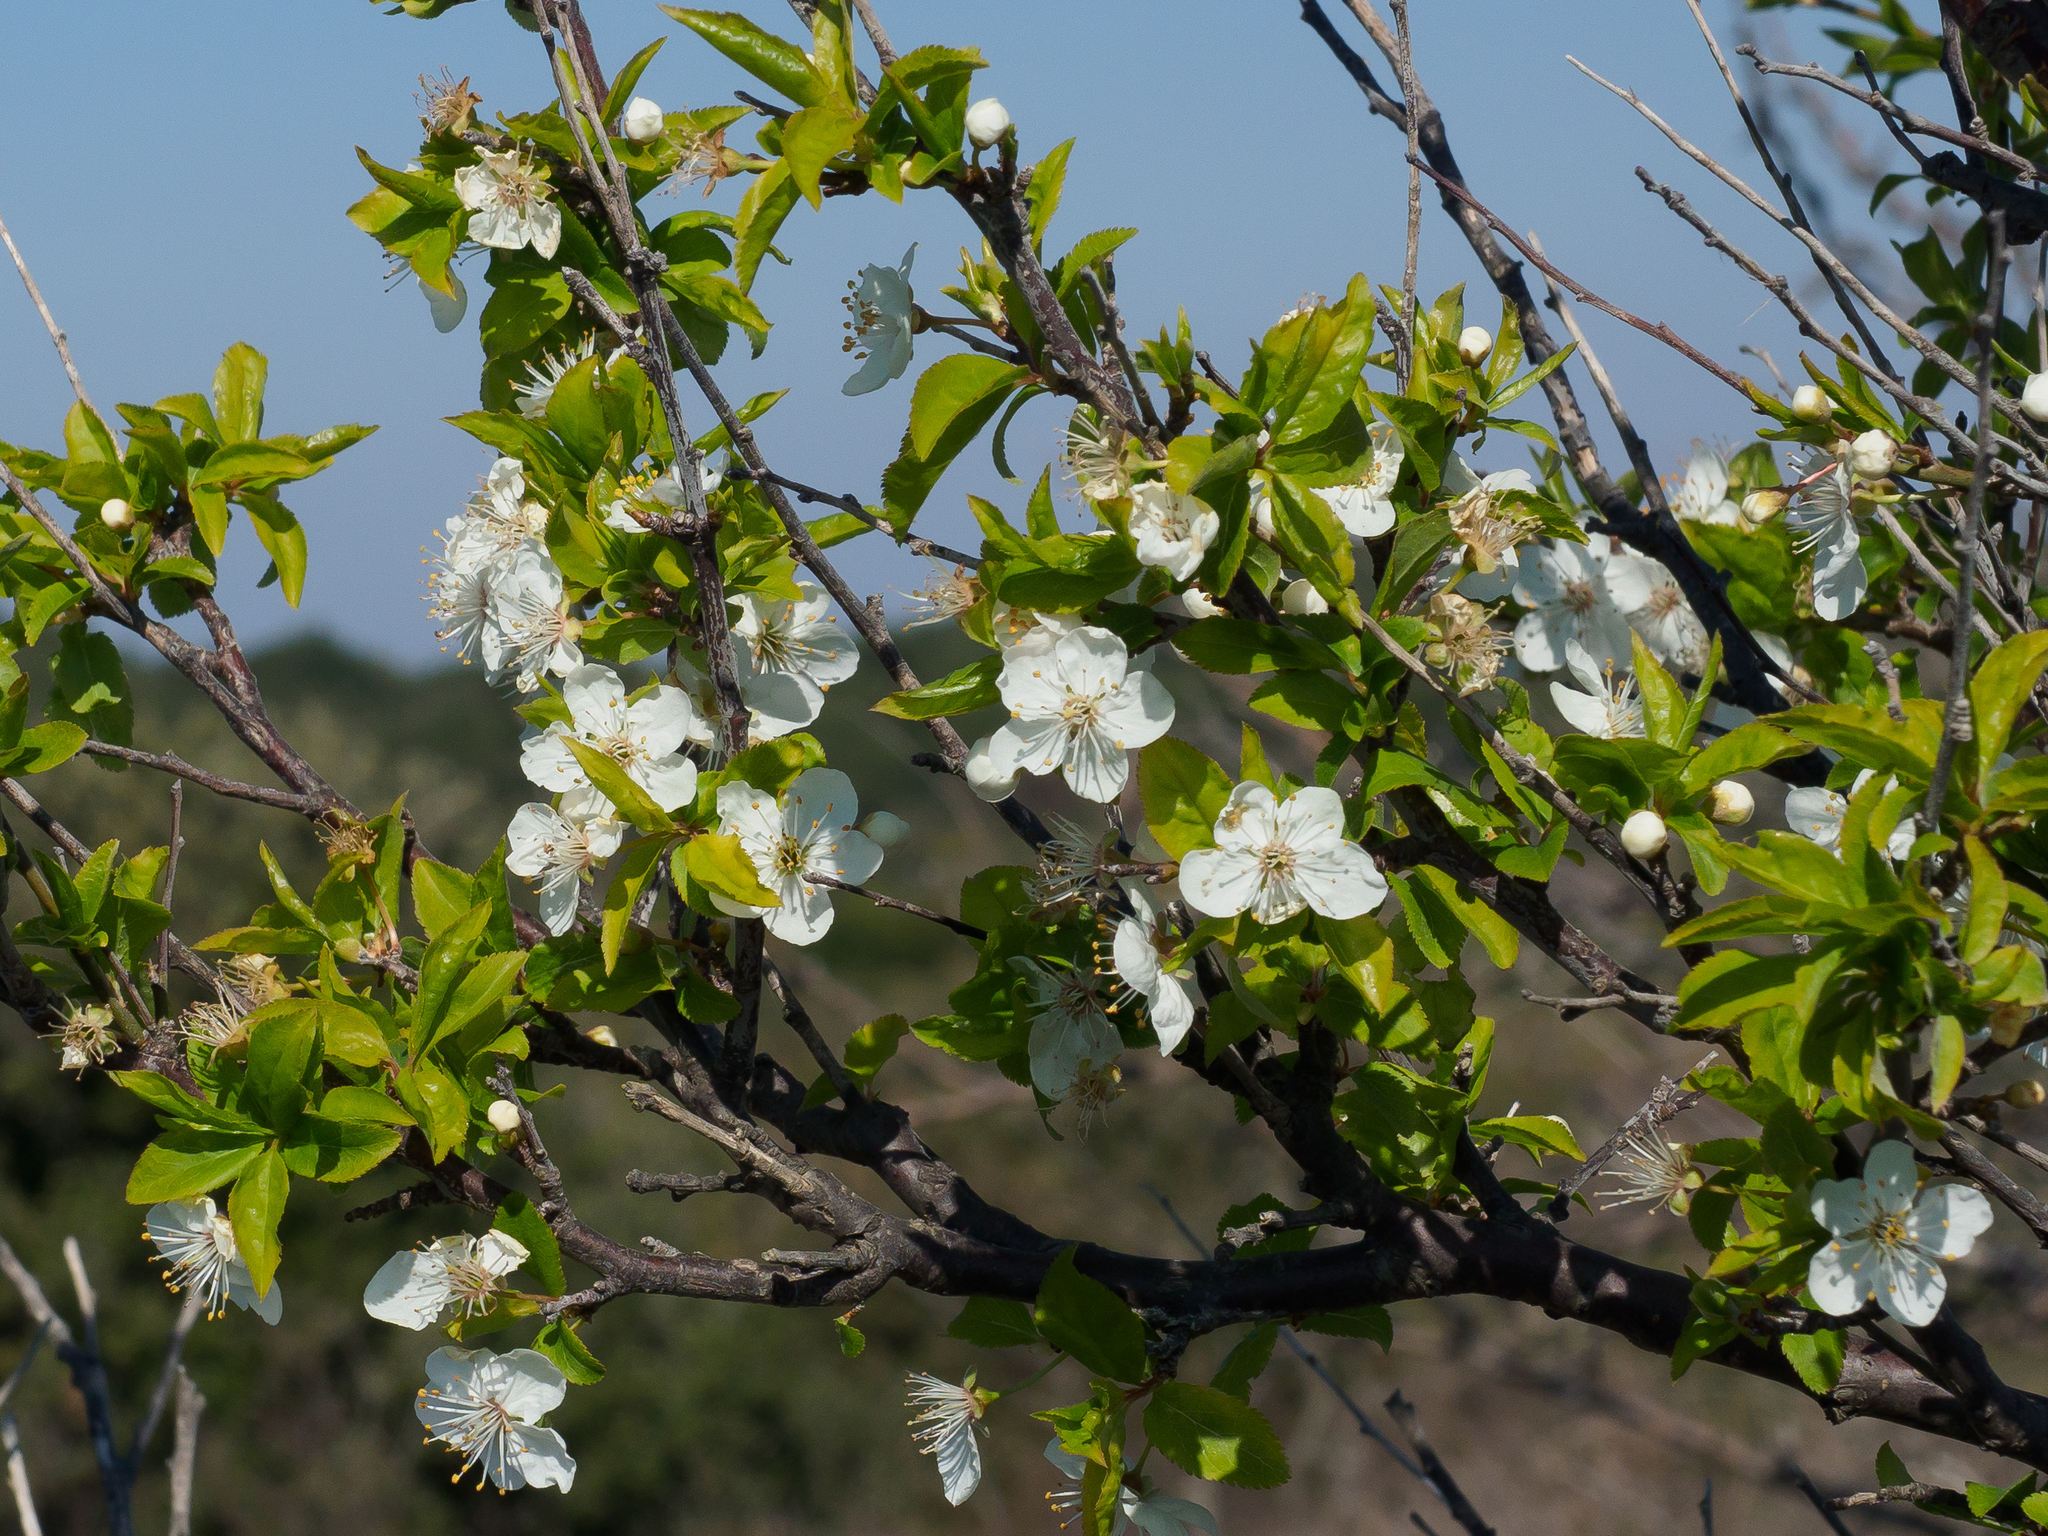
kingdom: Plantae
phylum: Tracheophyta
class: Magnoliopsida
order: Rosales
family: Rosaceae
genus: Prunus
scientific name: Prunus spinosa
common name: Blackthorn
